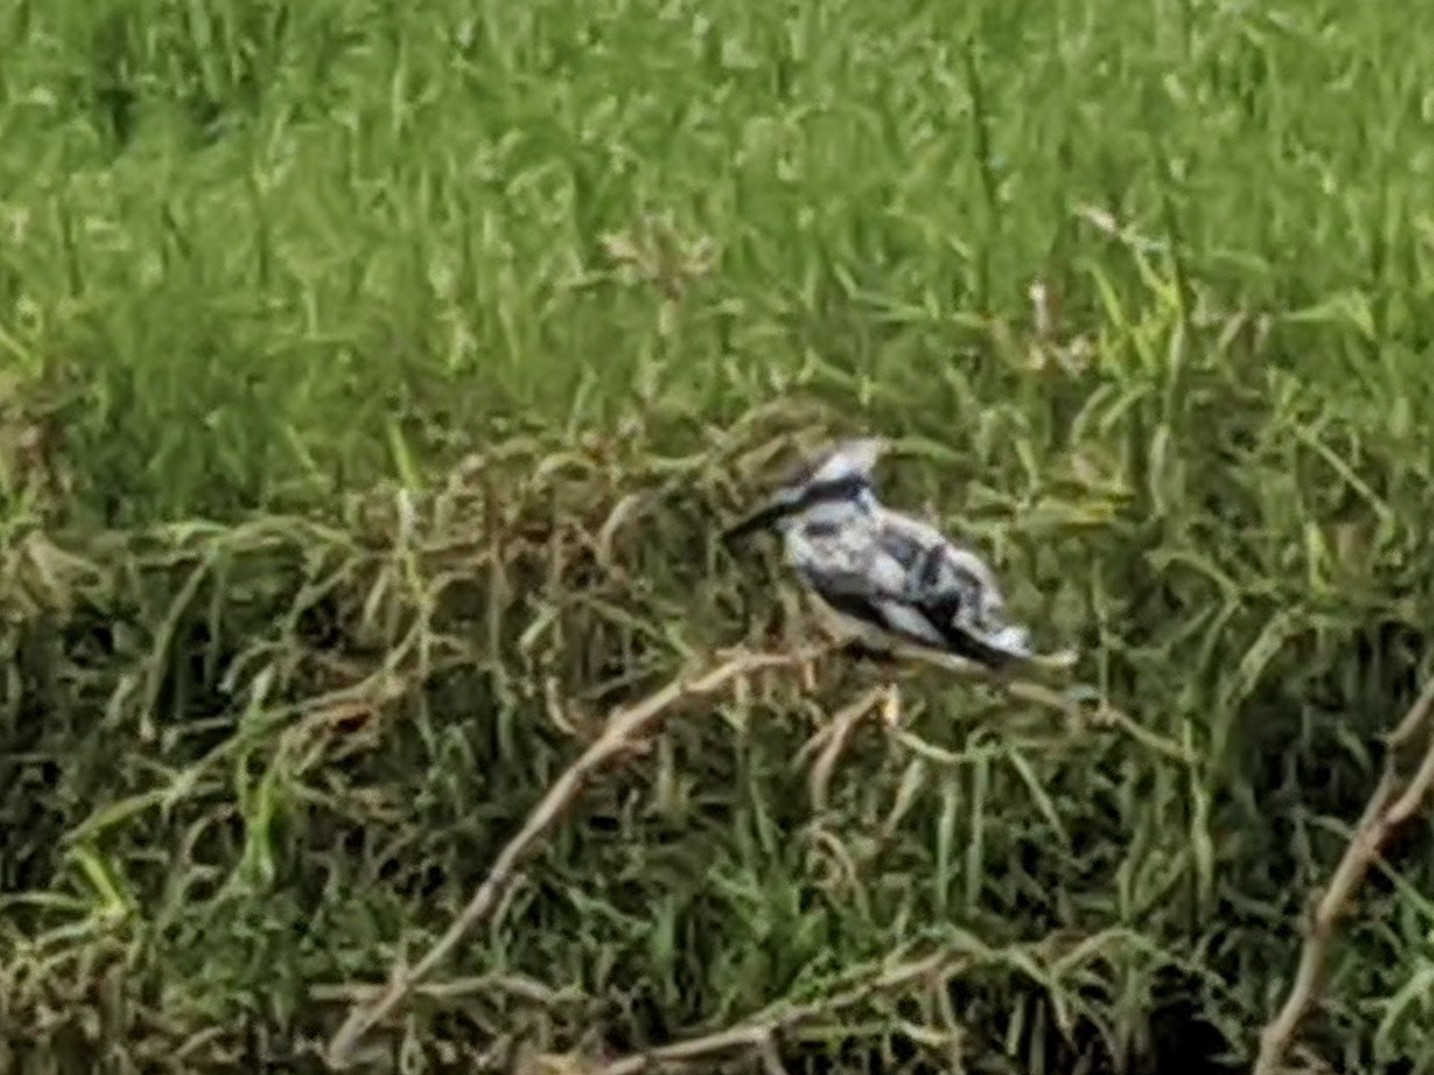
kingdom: Animalia
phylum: Chordata
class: Aves
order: Coraciiformes
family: Alcedinidae
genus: Ceryle
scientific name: Ceryle rudis
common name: Pied kingfisher
